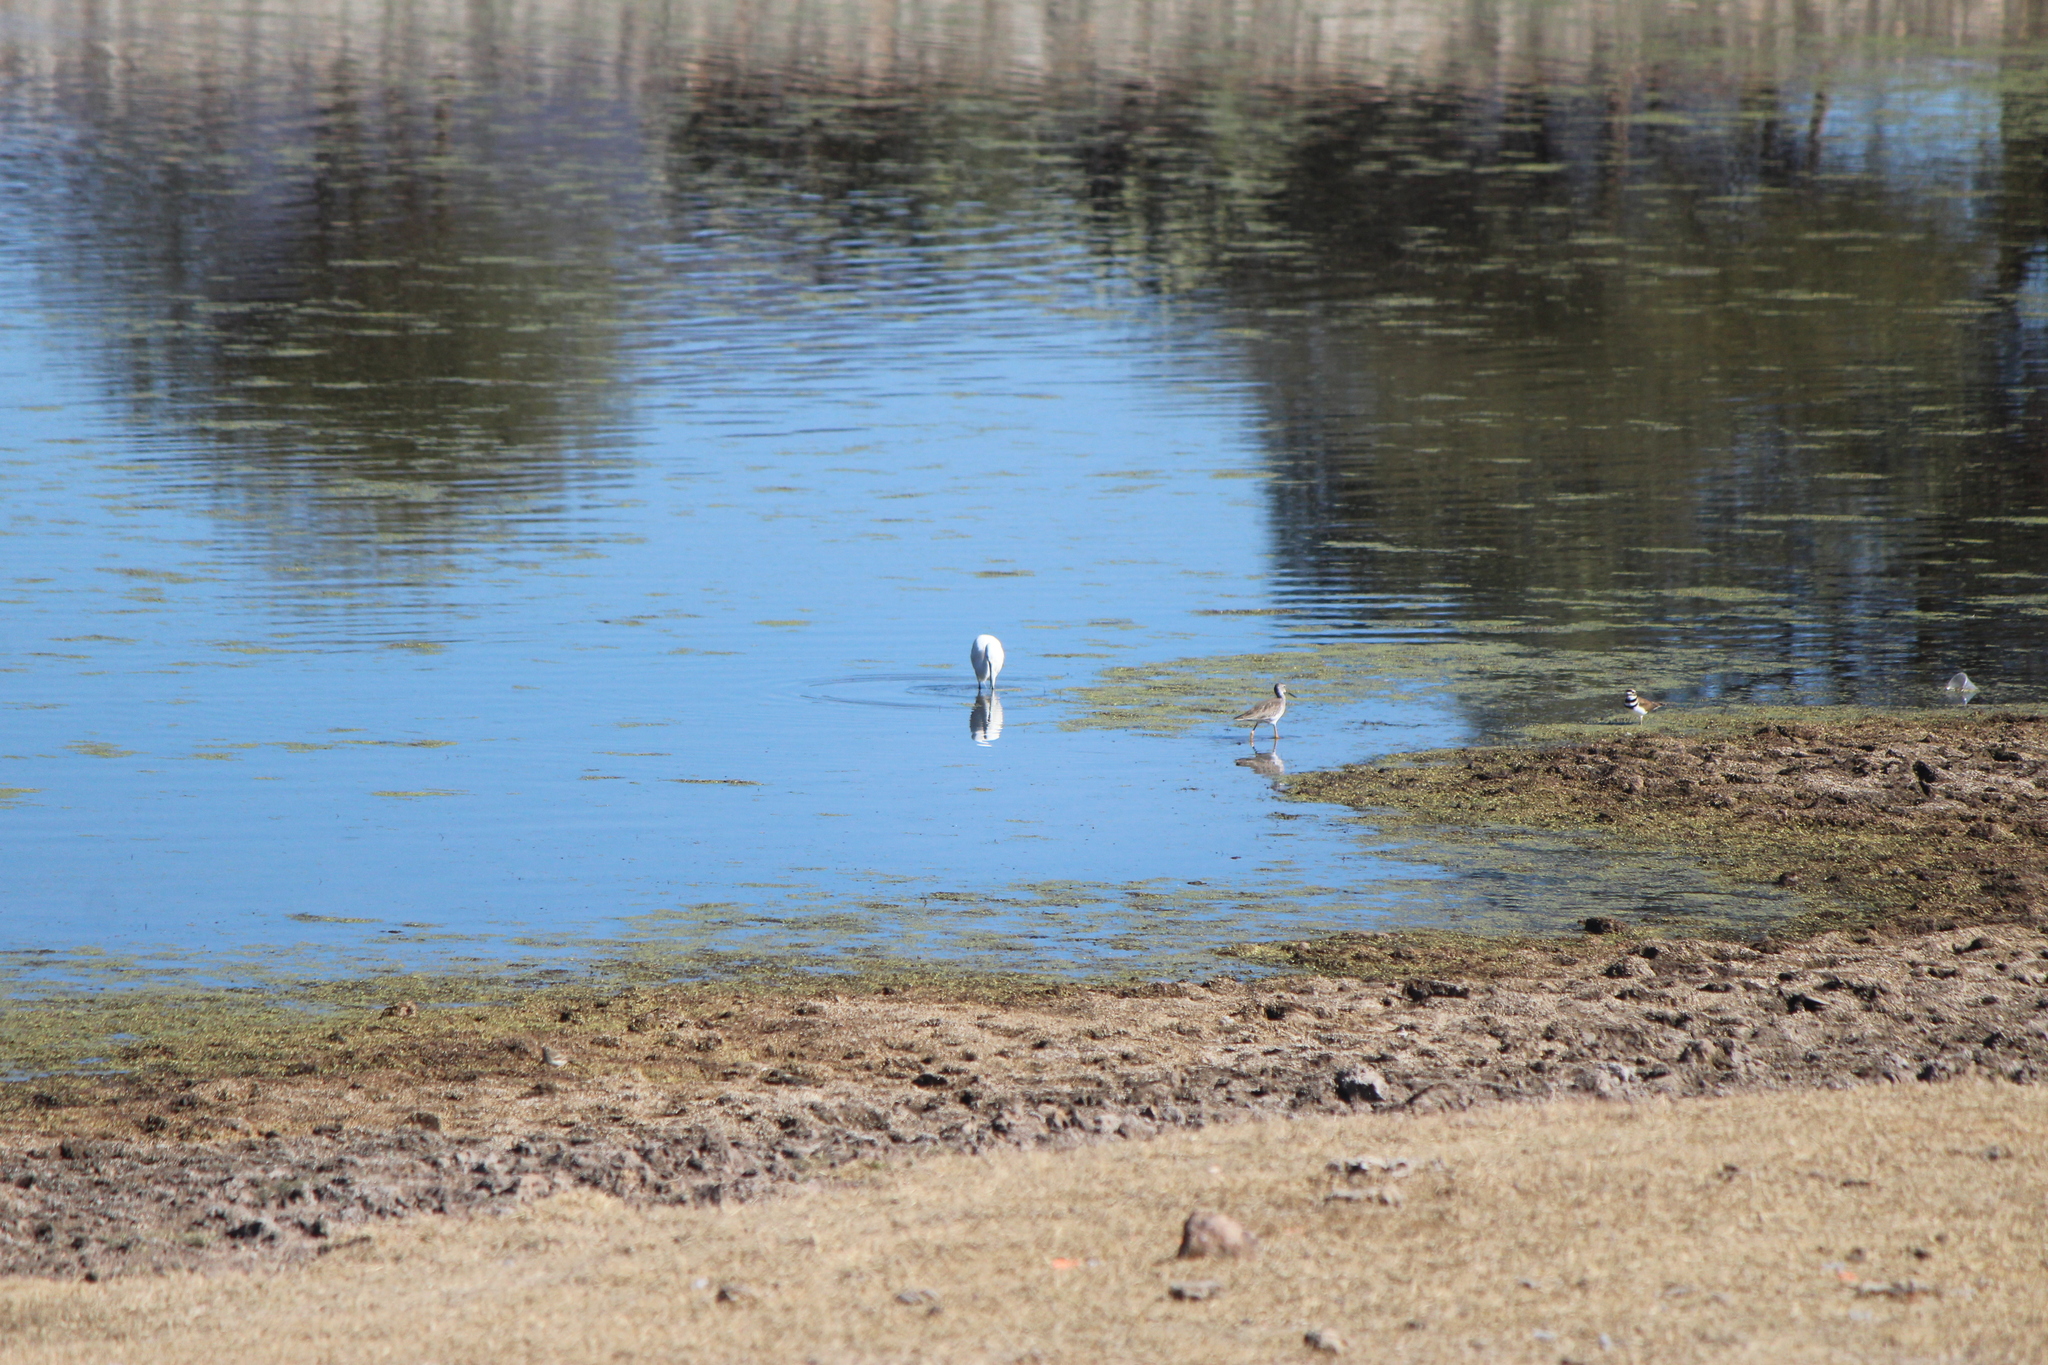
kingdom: Animalia
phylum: Chordata
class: Aves
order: Charadriiformes
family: Charadriidae
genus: Charadrius
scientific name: Charadrius vociferus
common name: Killdeer
